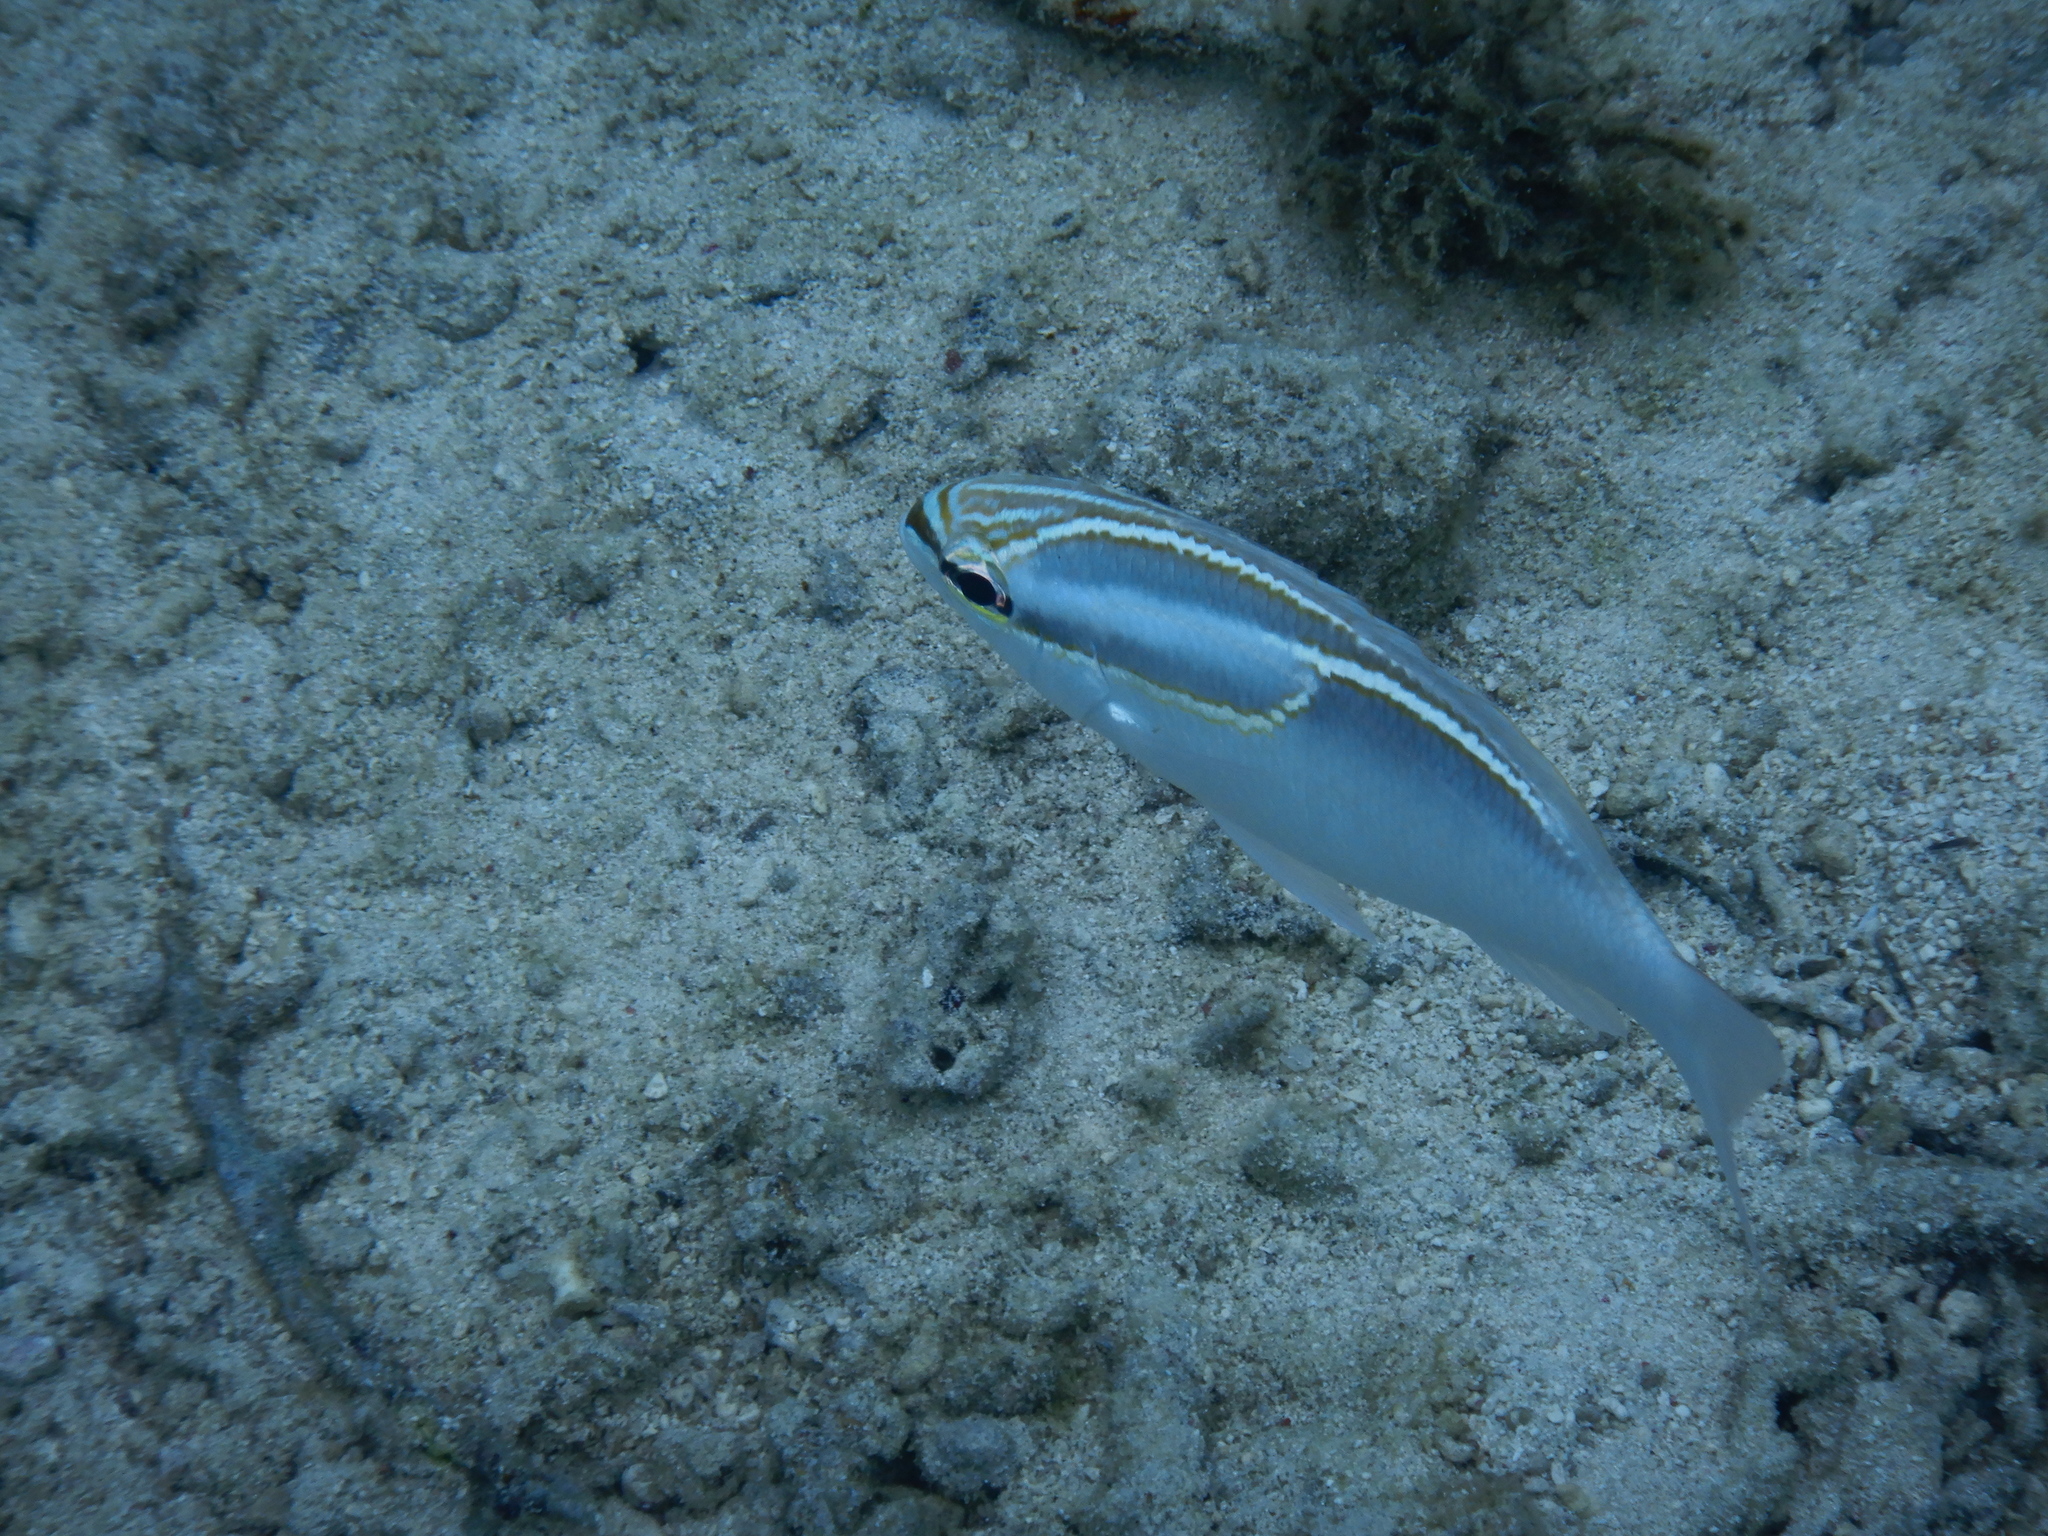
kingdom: Animalia
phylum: Chordata
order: Perciformes
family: Nemipteridae
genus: Scolopsis
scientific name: Scolopsis trilineata
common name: Three-lined monocle bream
